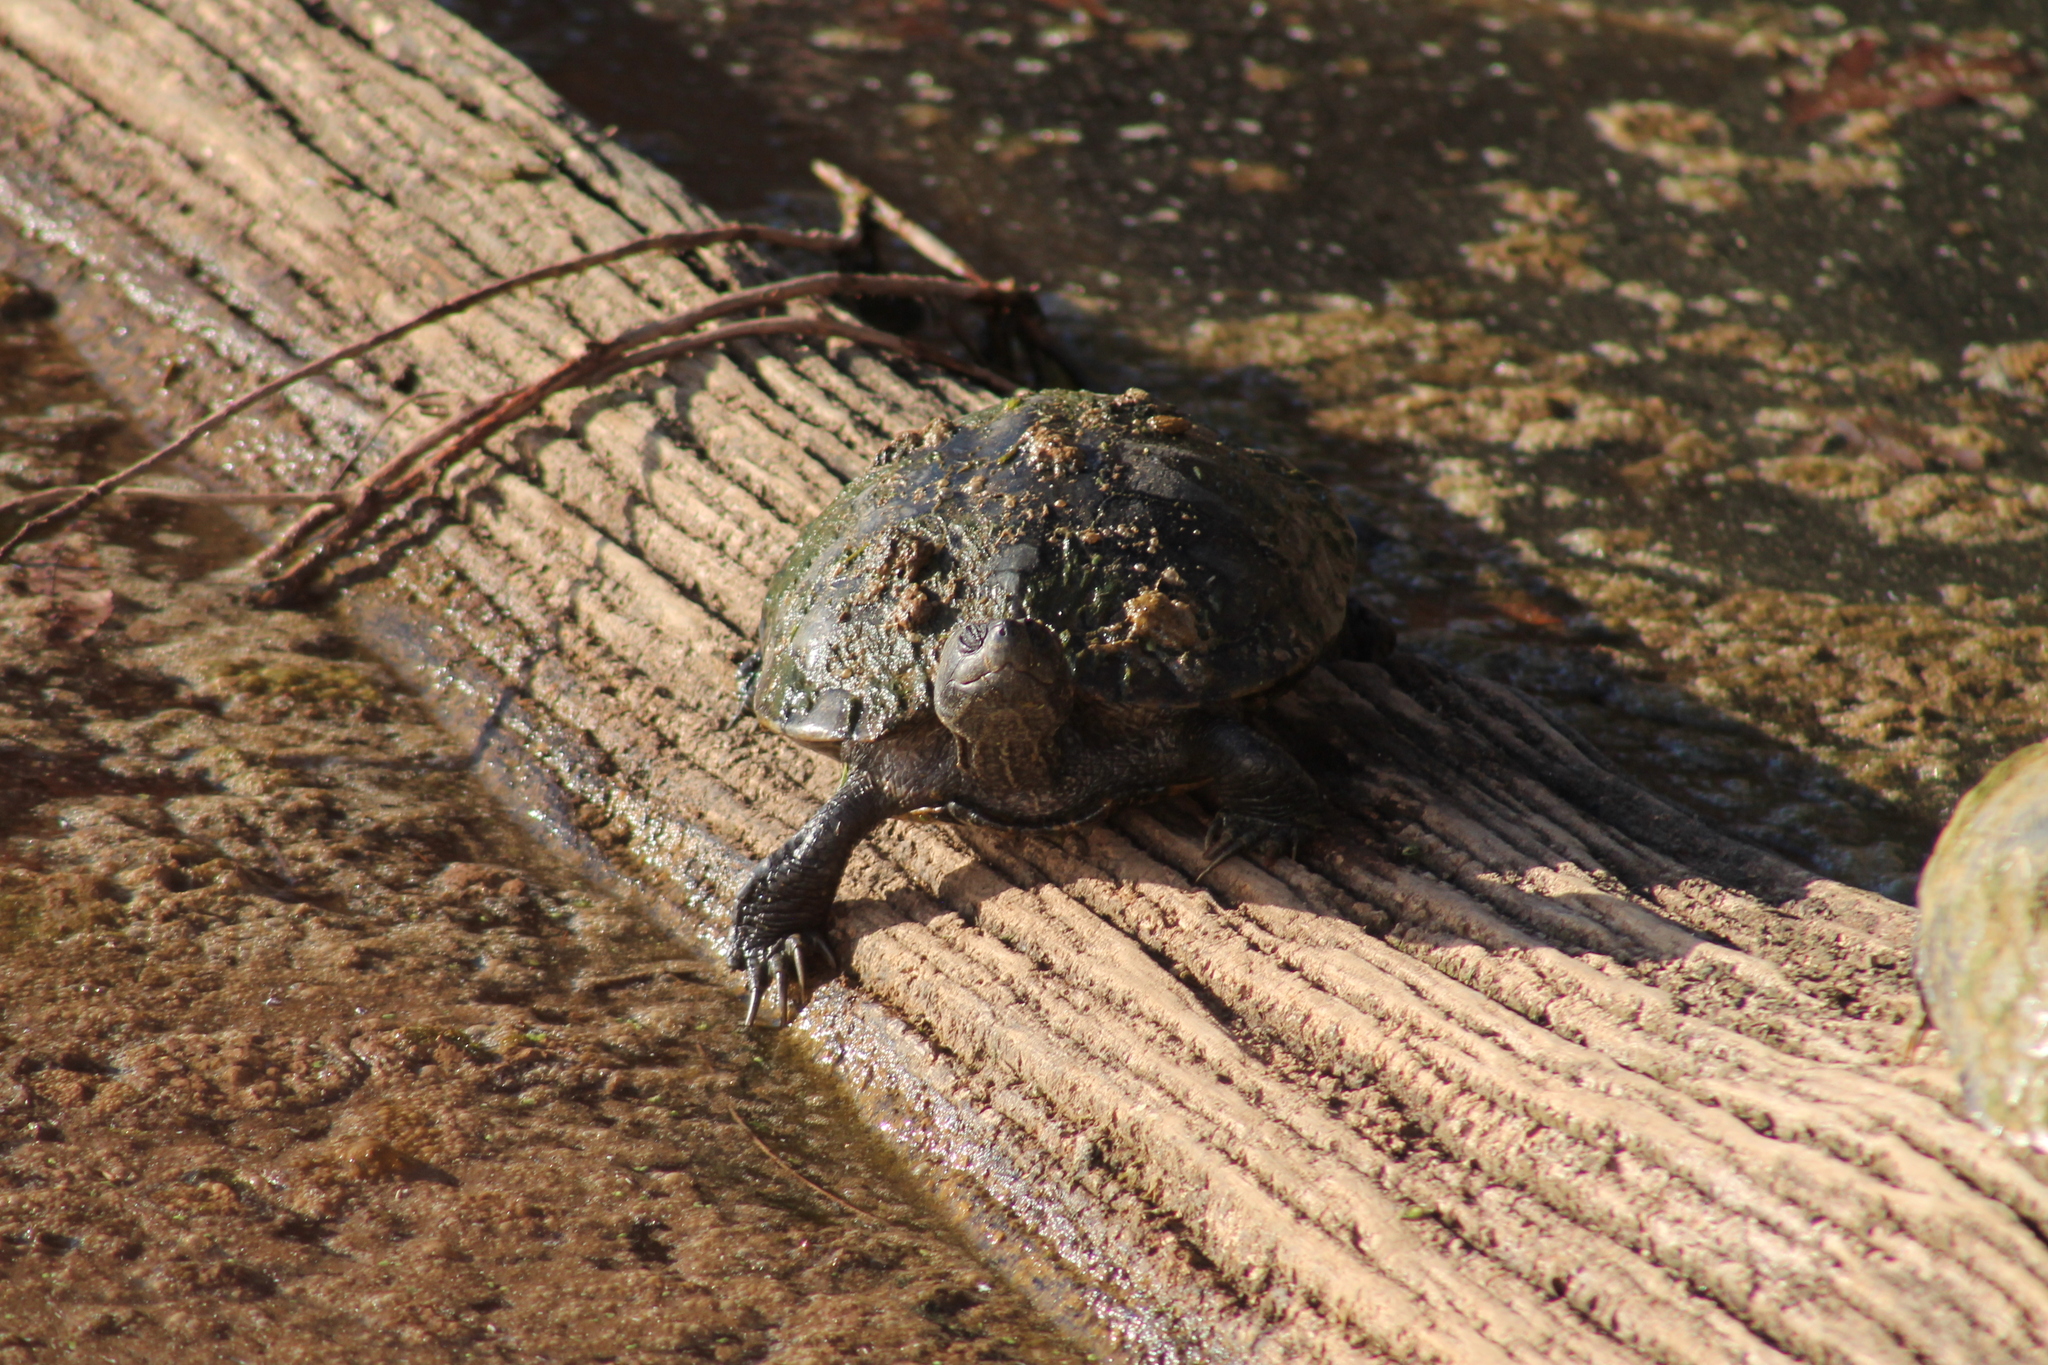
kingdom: Animalia
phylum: Chordata
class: Testudines
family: Emydidae
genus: Trachemys
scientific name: Trachemys scripta
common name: Slider
